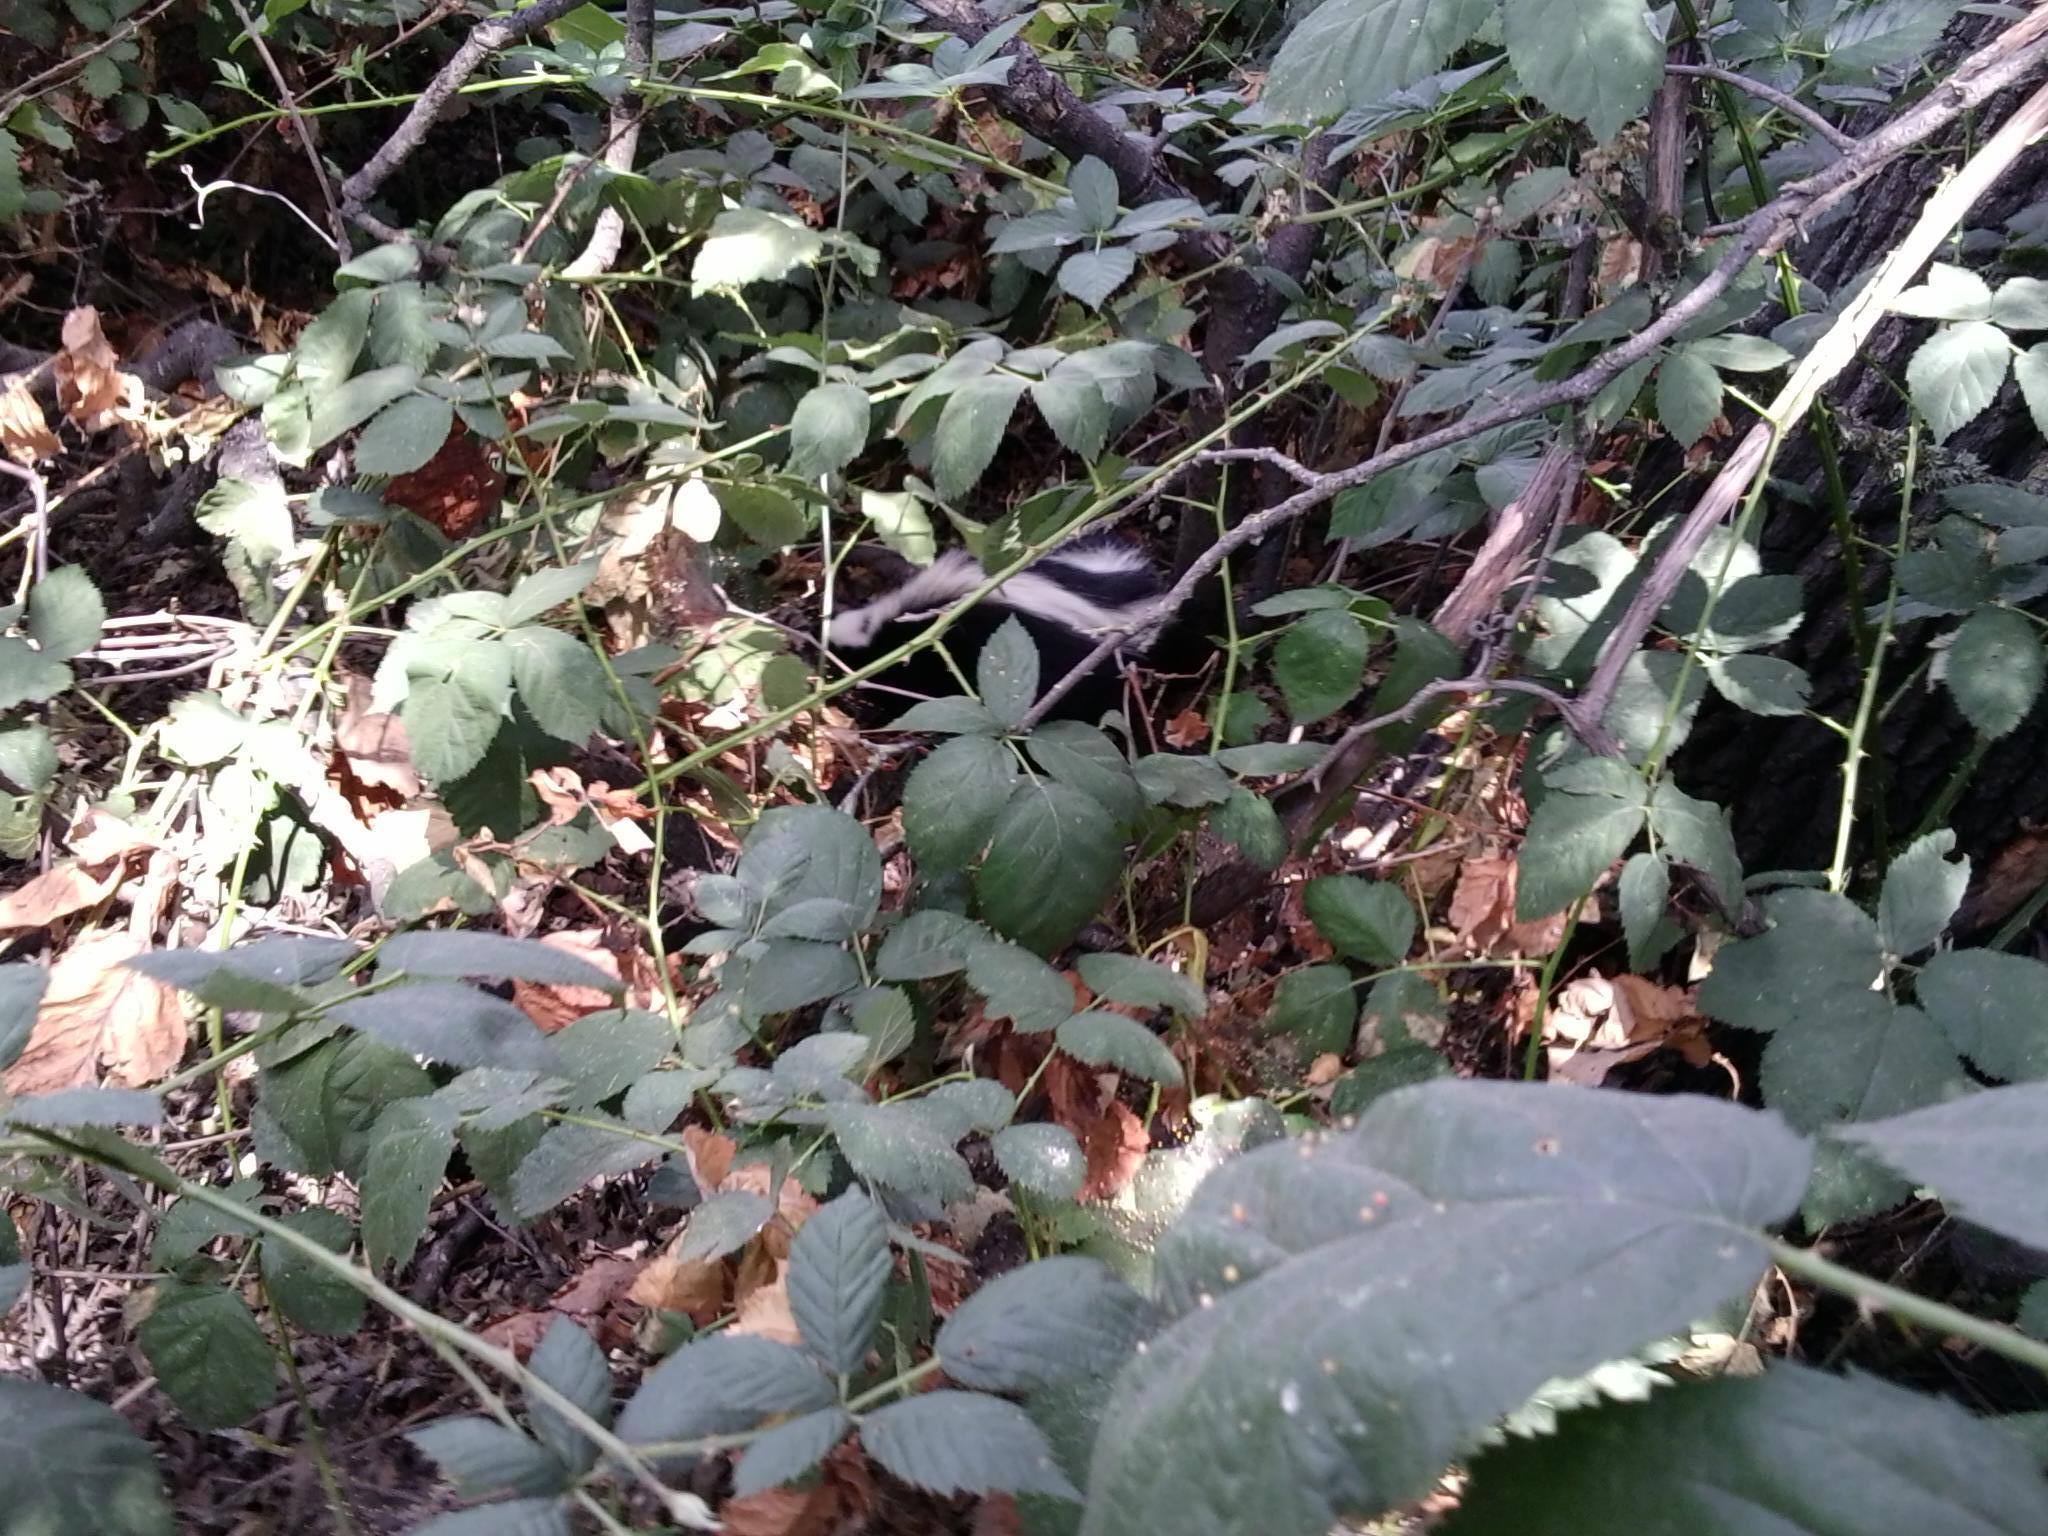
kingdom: Animalia
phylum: Chordata
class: Mammalia
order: Carnivora
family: Mephitidae
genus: Mephitis
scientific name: Mephitis mephitis
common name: Striped skunk
